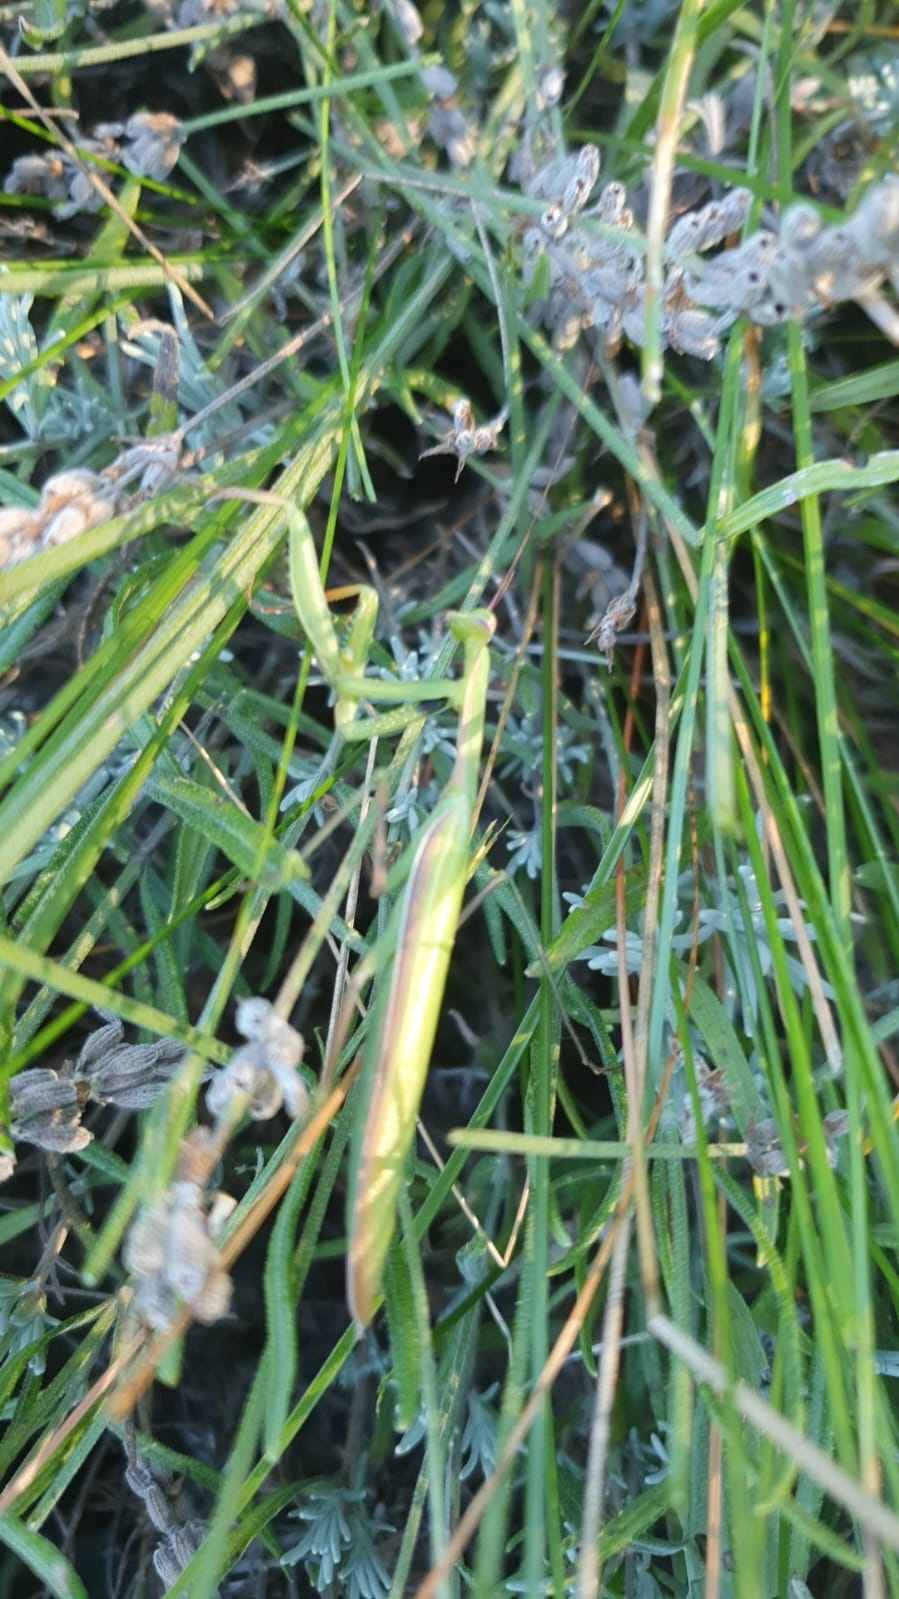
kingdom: Animalia
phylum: Arthropoda
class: Insecta
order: Mantodea
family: Mantidae
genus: Mantis
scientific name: Mantis religiosa
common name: Praying mantis
